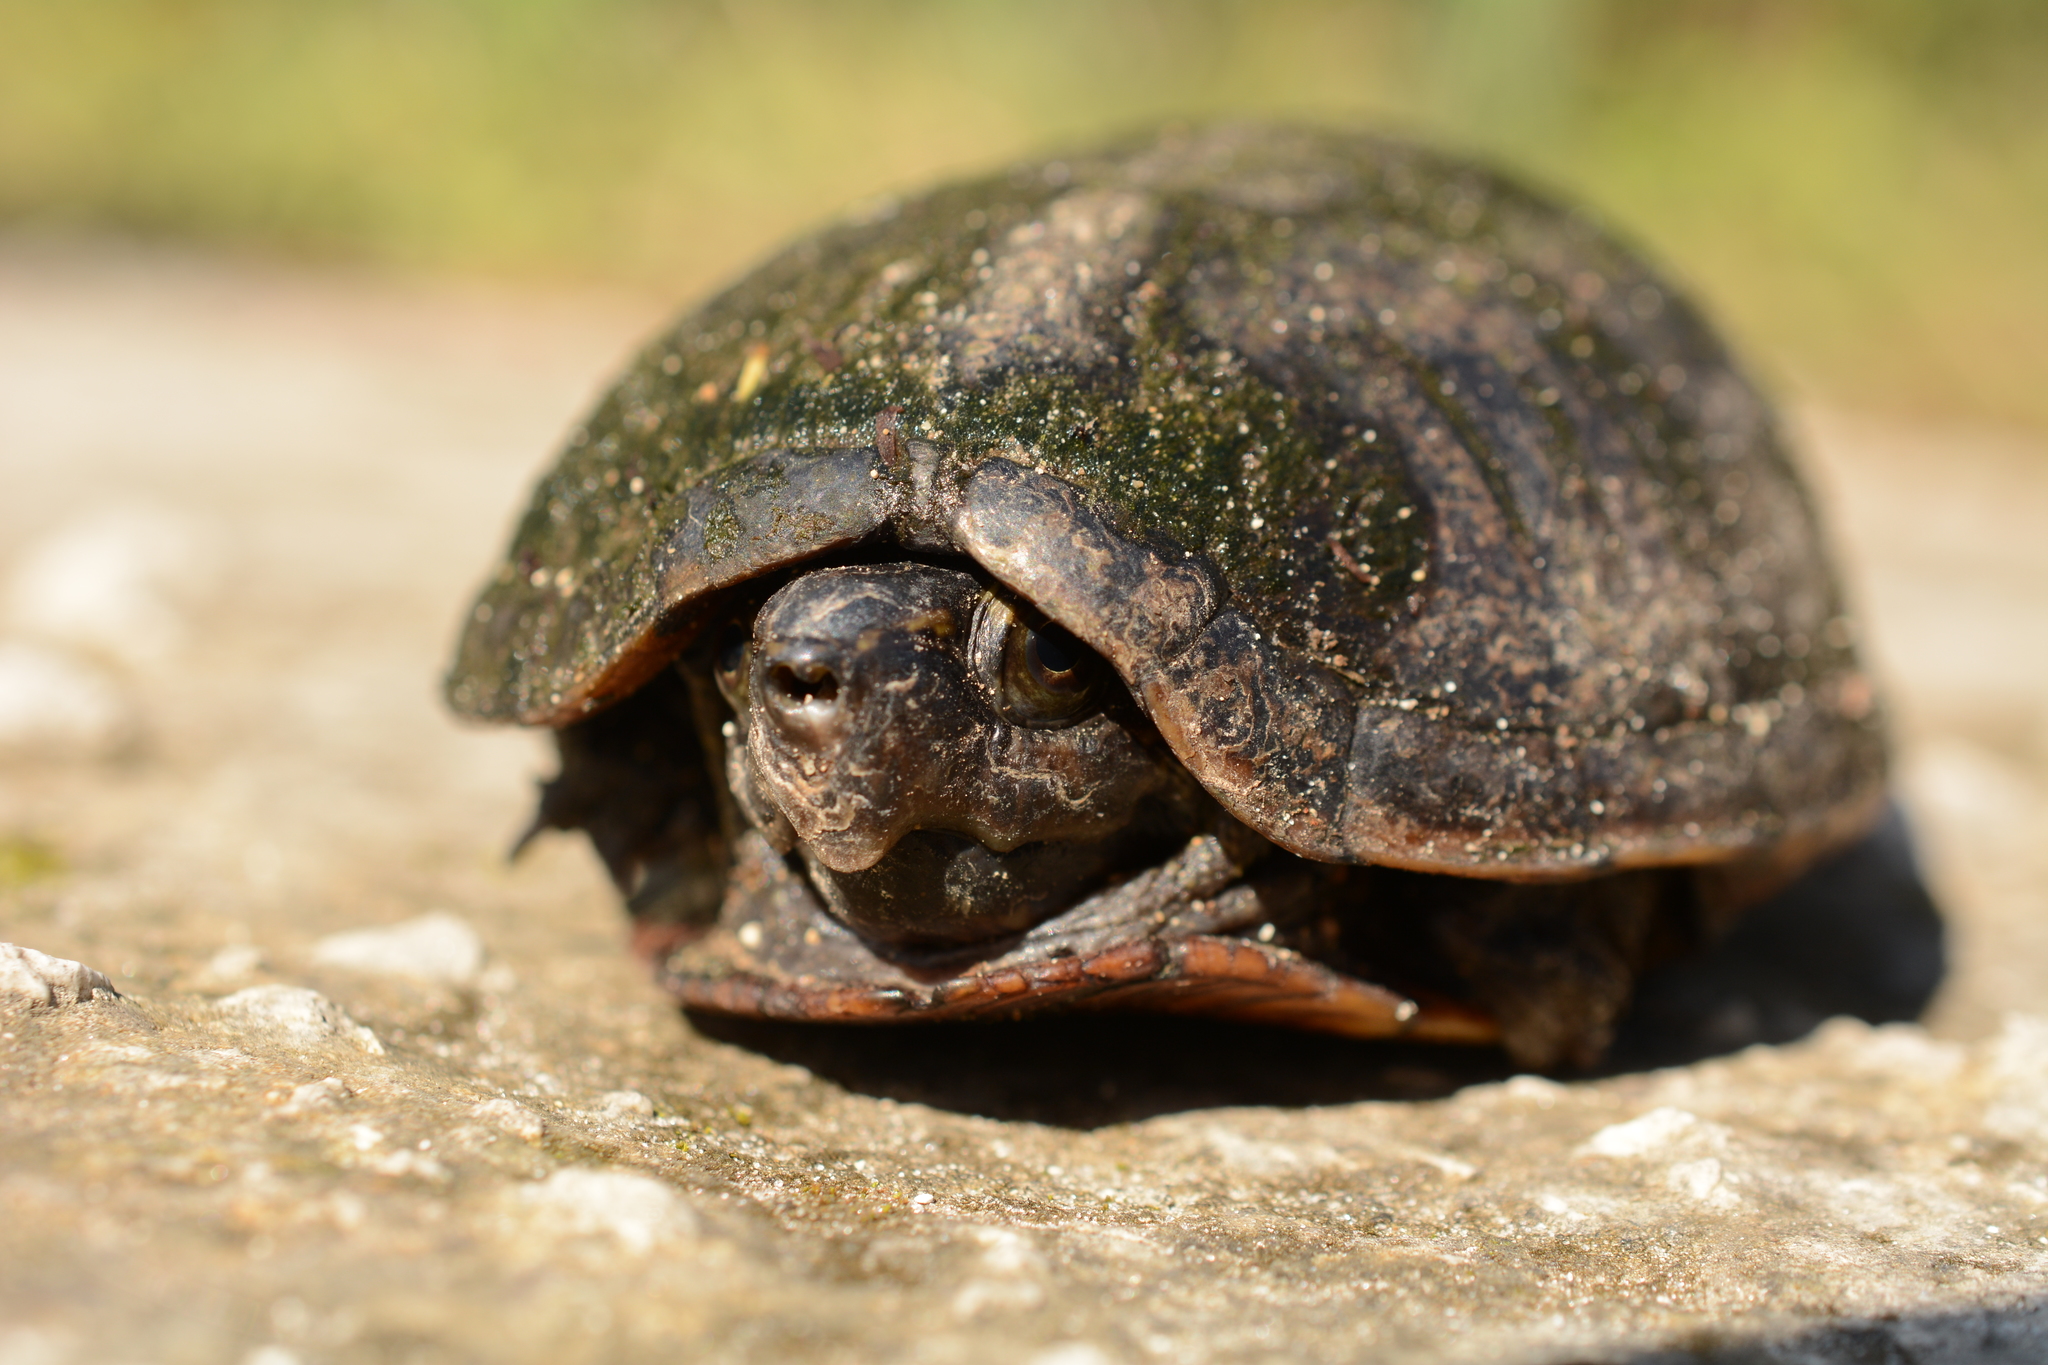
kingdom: Animalia
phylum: Chordata
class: Testudines
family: Kinosternidae
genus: Kinosternon
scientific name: Kinosternon baurii
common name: Striped mud turtle
